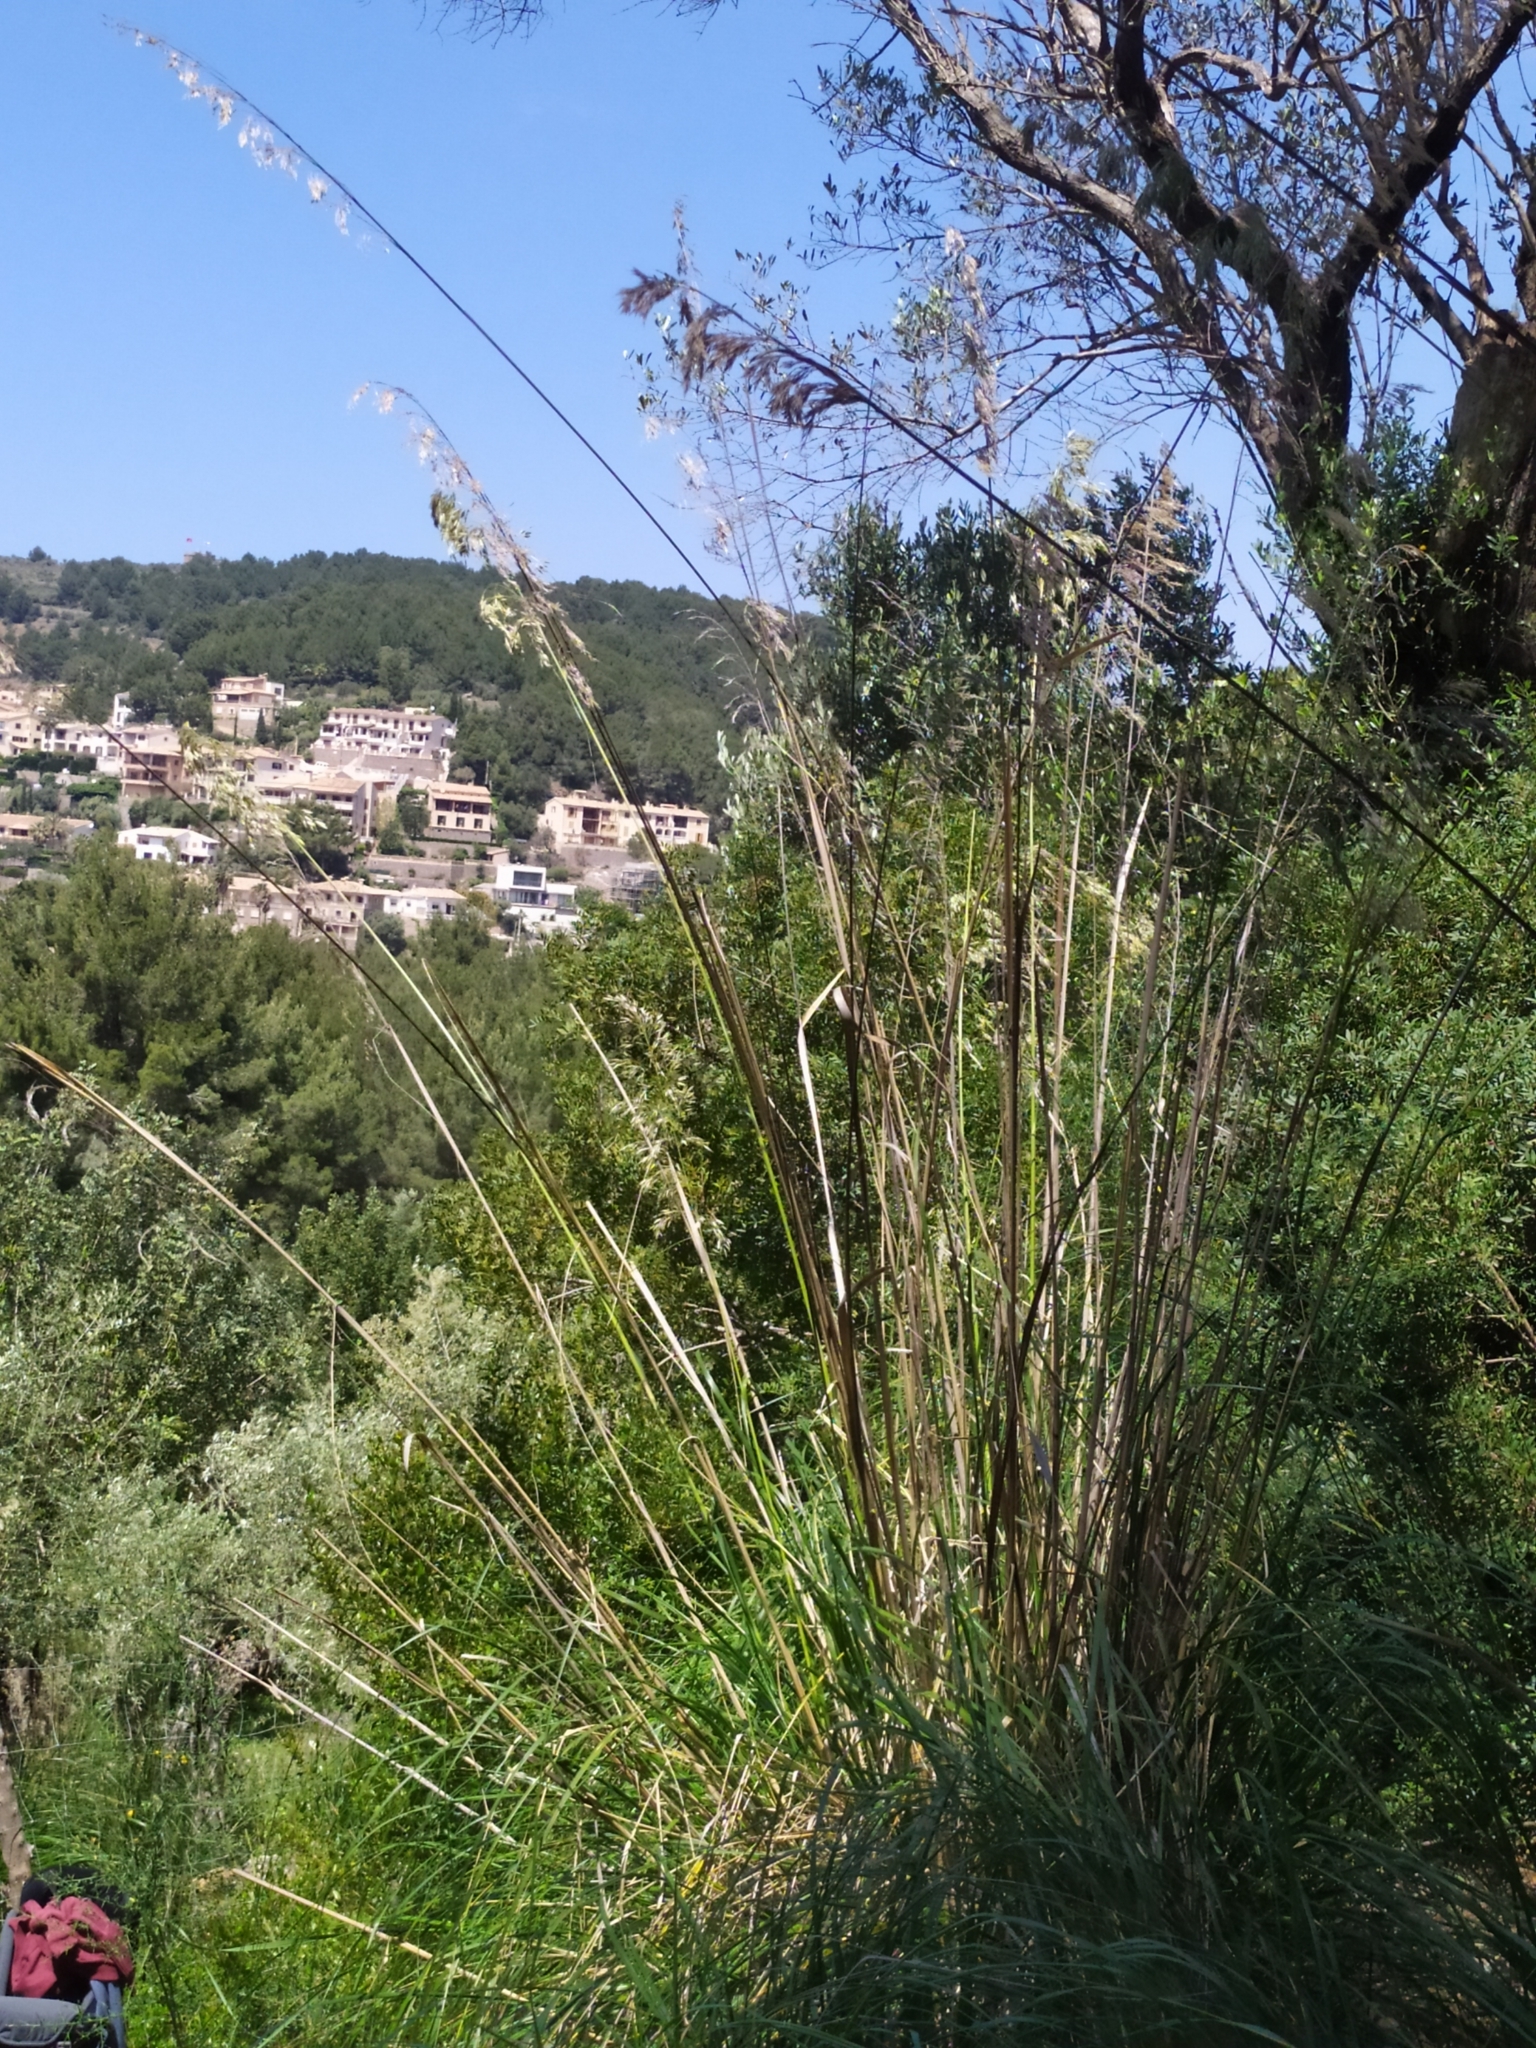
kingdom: Plantae
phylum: Tracheophyta
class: Liliopsida
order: Poales
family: Poaceae
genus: Ampelodesmos
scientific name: Ampelodesmos mauritanicus
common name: Mauritanian grass
